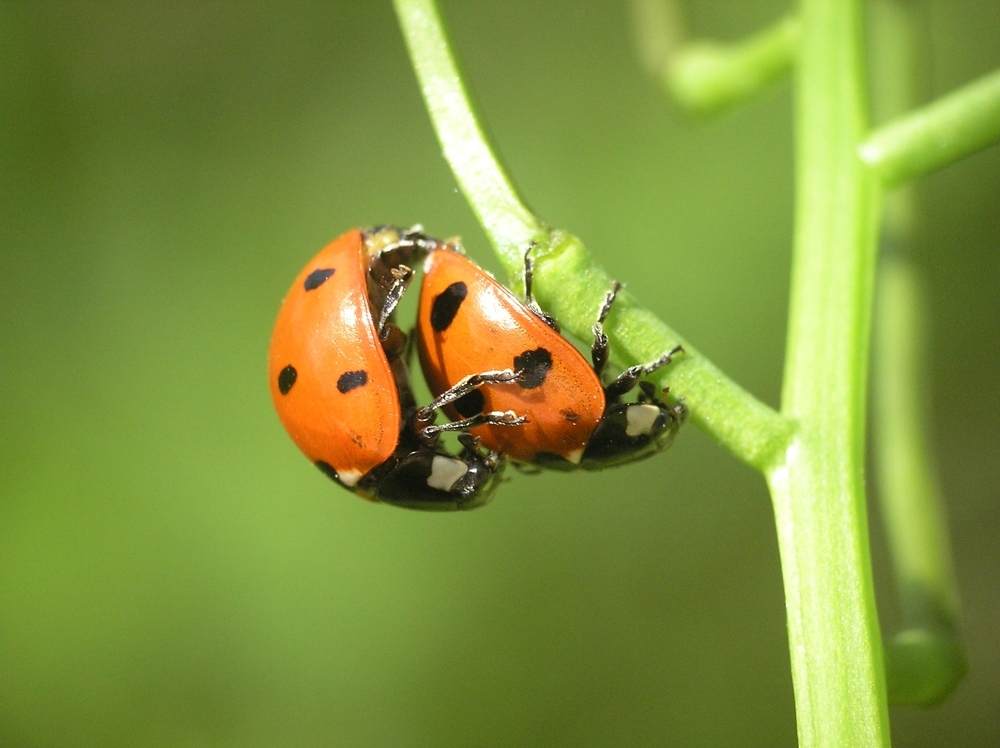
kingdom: Animalia
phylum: Arthropoda
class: Insecta
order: Coleoptera
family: Coccinellidae
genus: Coccinella
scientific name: Coccinella septempunctata
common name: Sevenspotted lady beetle
